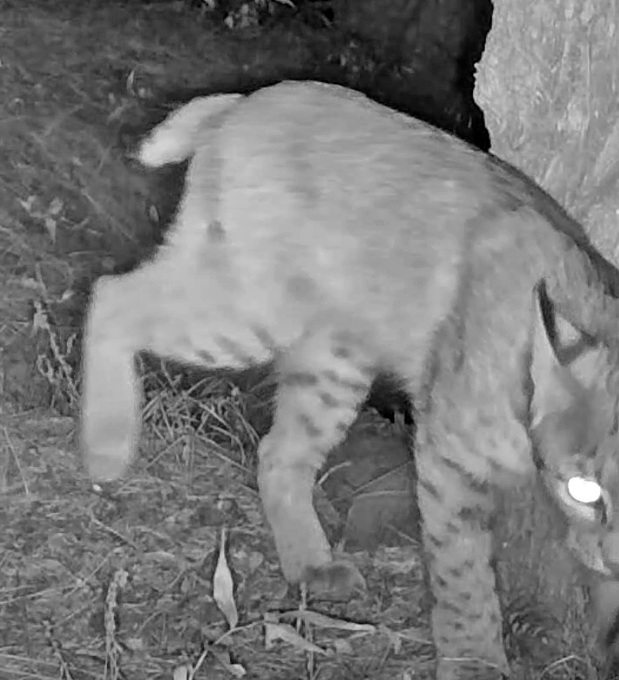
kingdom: Animalia
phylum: Chordata
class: Mammalia
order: Carnivora
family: Felidae
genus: Lynx
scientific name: Lynx rufus
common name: Bobcat
